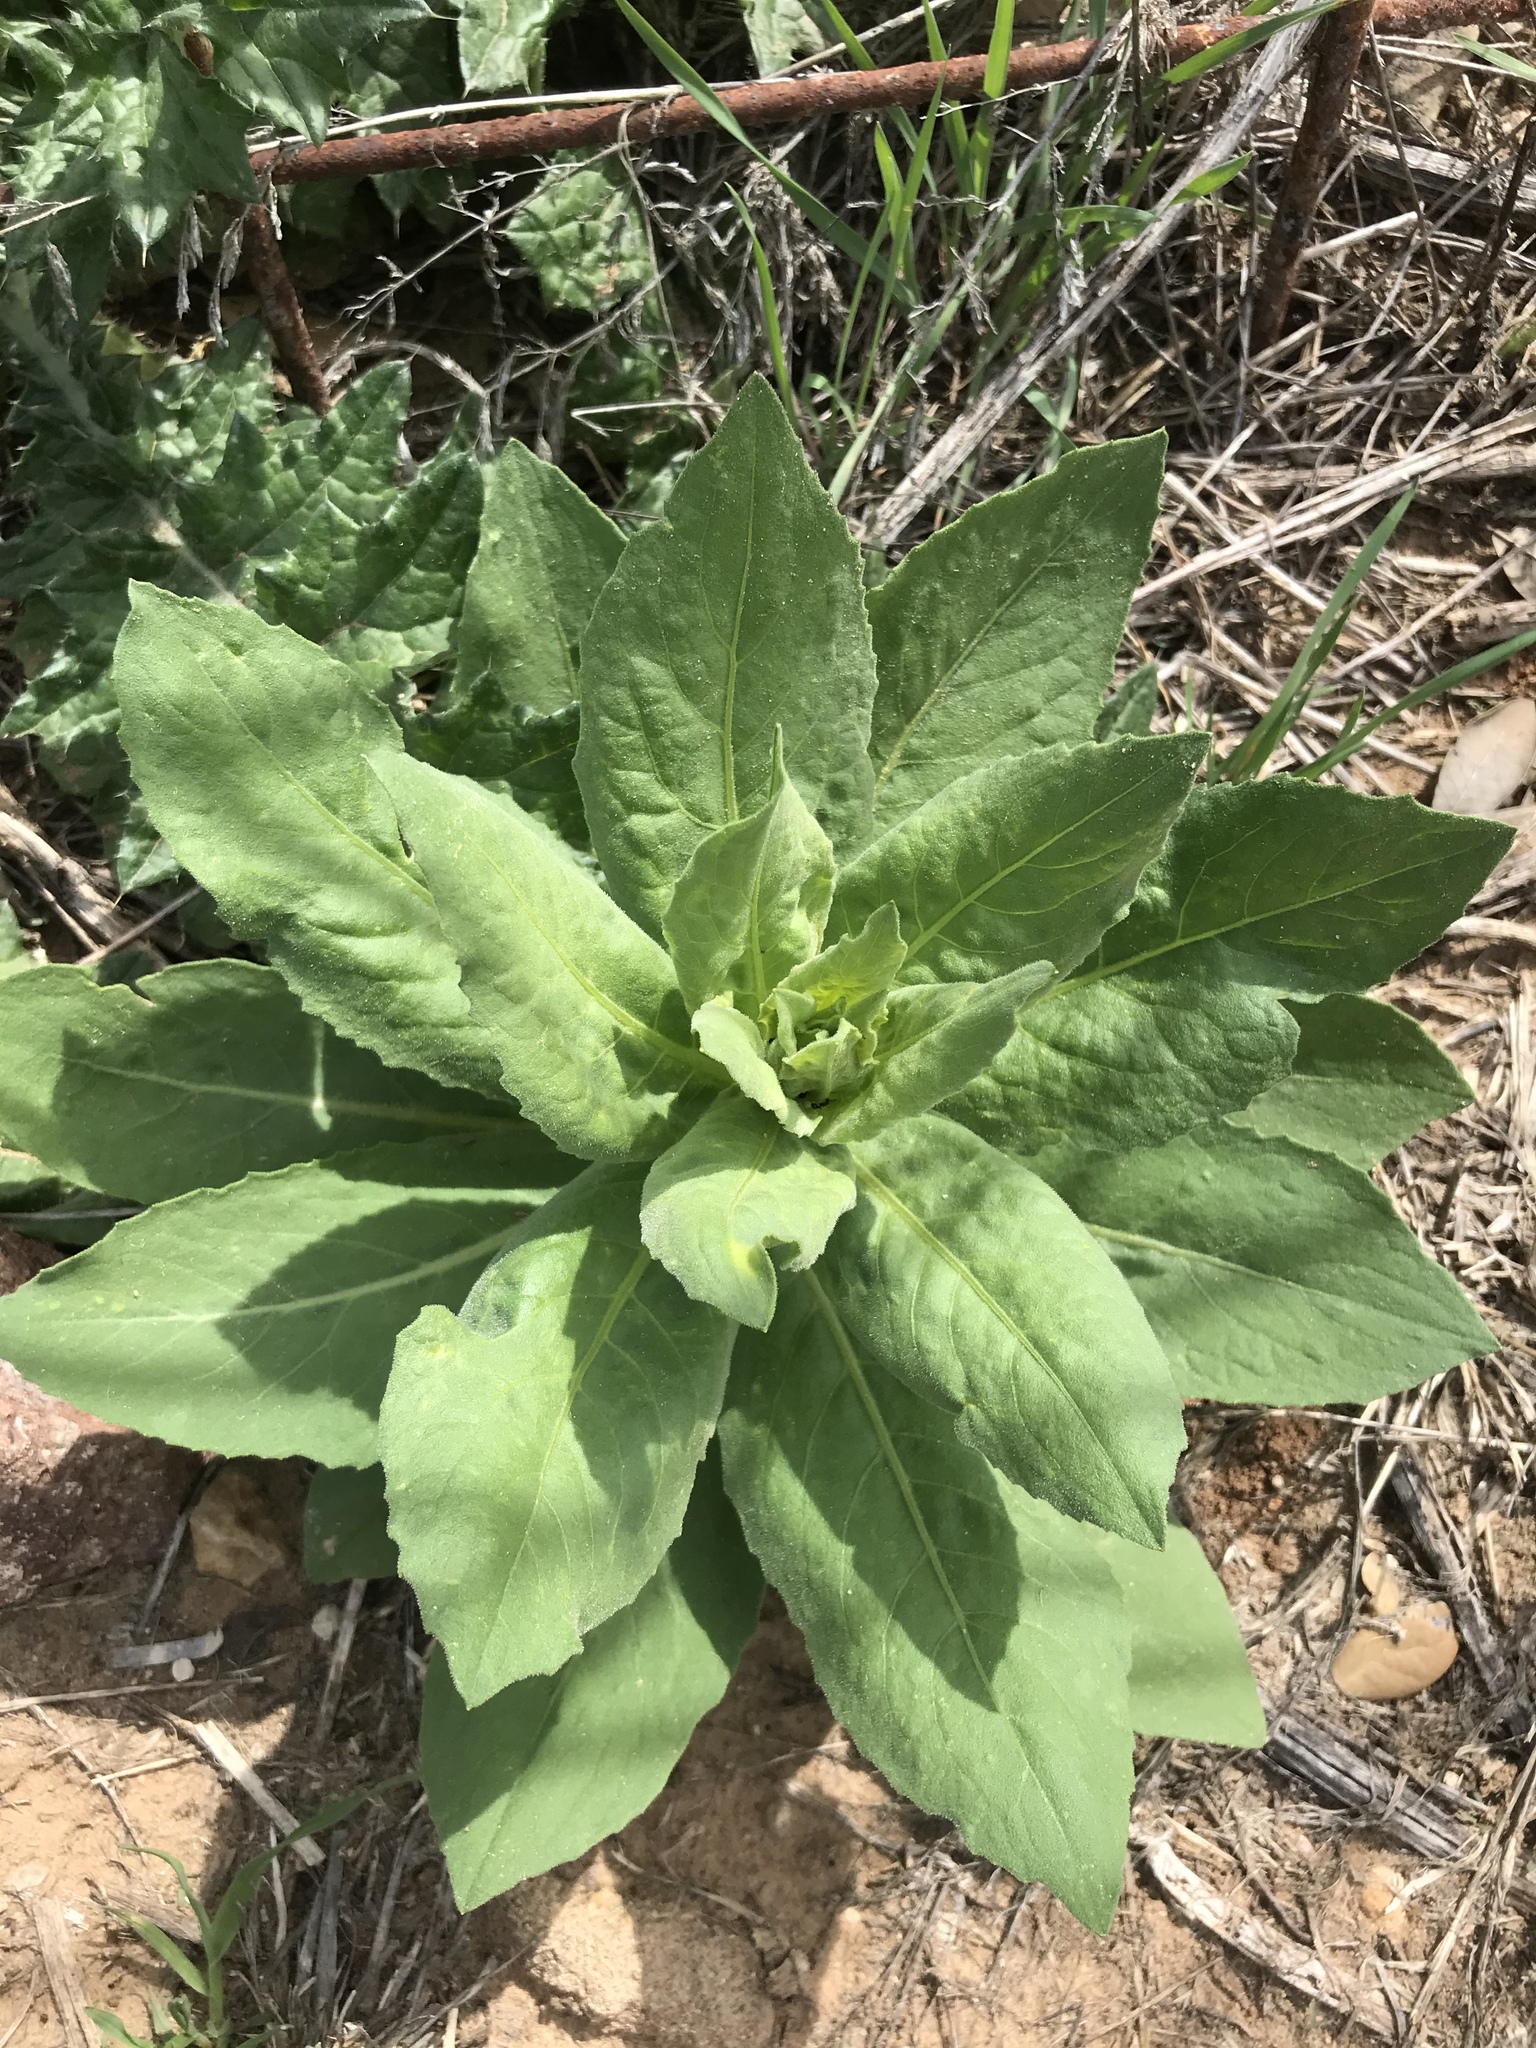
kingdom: Plantae
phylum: Tracheophyta
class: Magnoliopsida
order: Lamiales
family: Scrophulariaceae
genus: Verbascum
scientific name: Verbascum thapsus
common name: Common mullein
